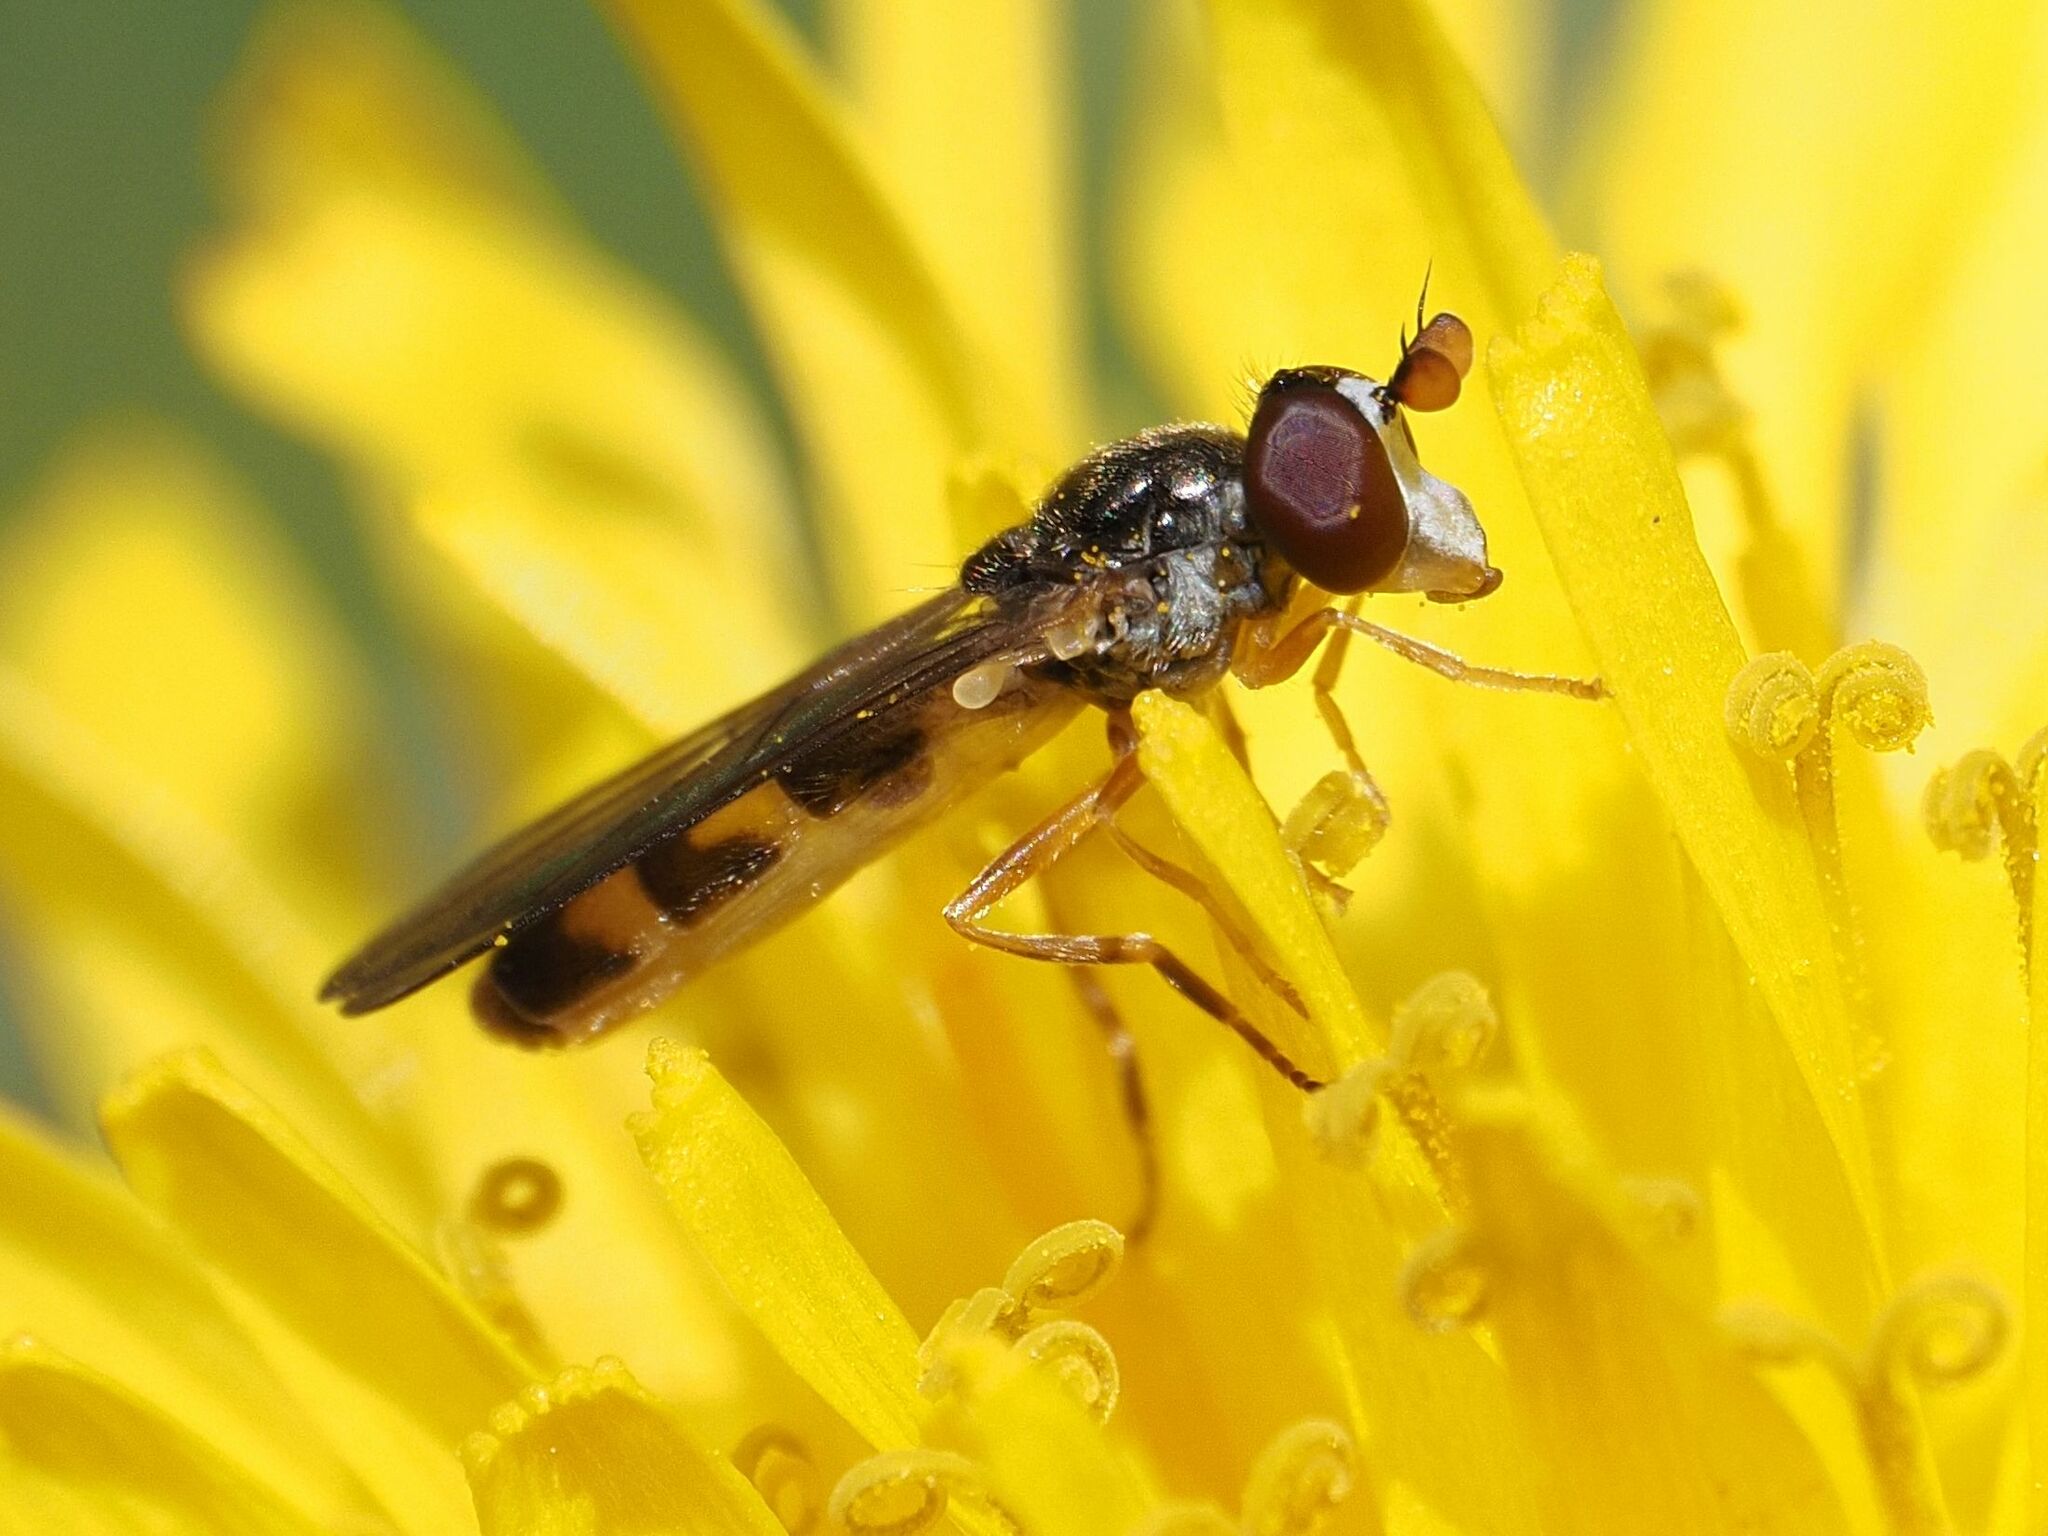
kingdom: Animalia
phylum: Arthropoda
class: Insecta
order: Diptera
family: Syrphidae
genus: Chamaesyrphus
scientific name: Chamaesyrphus scaevoides
